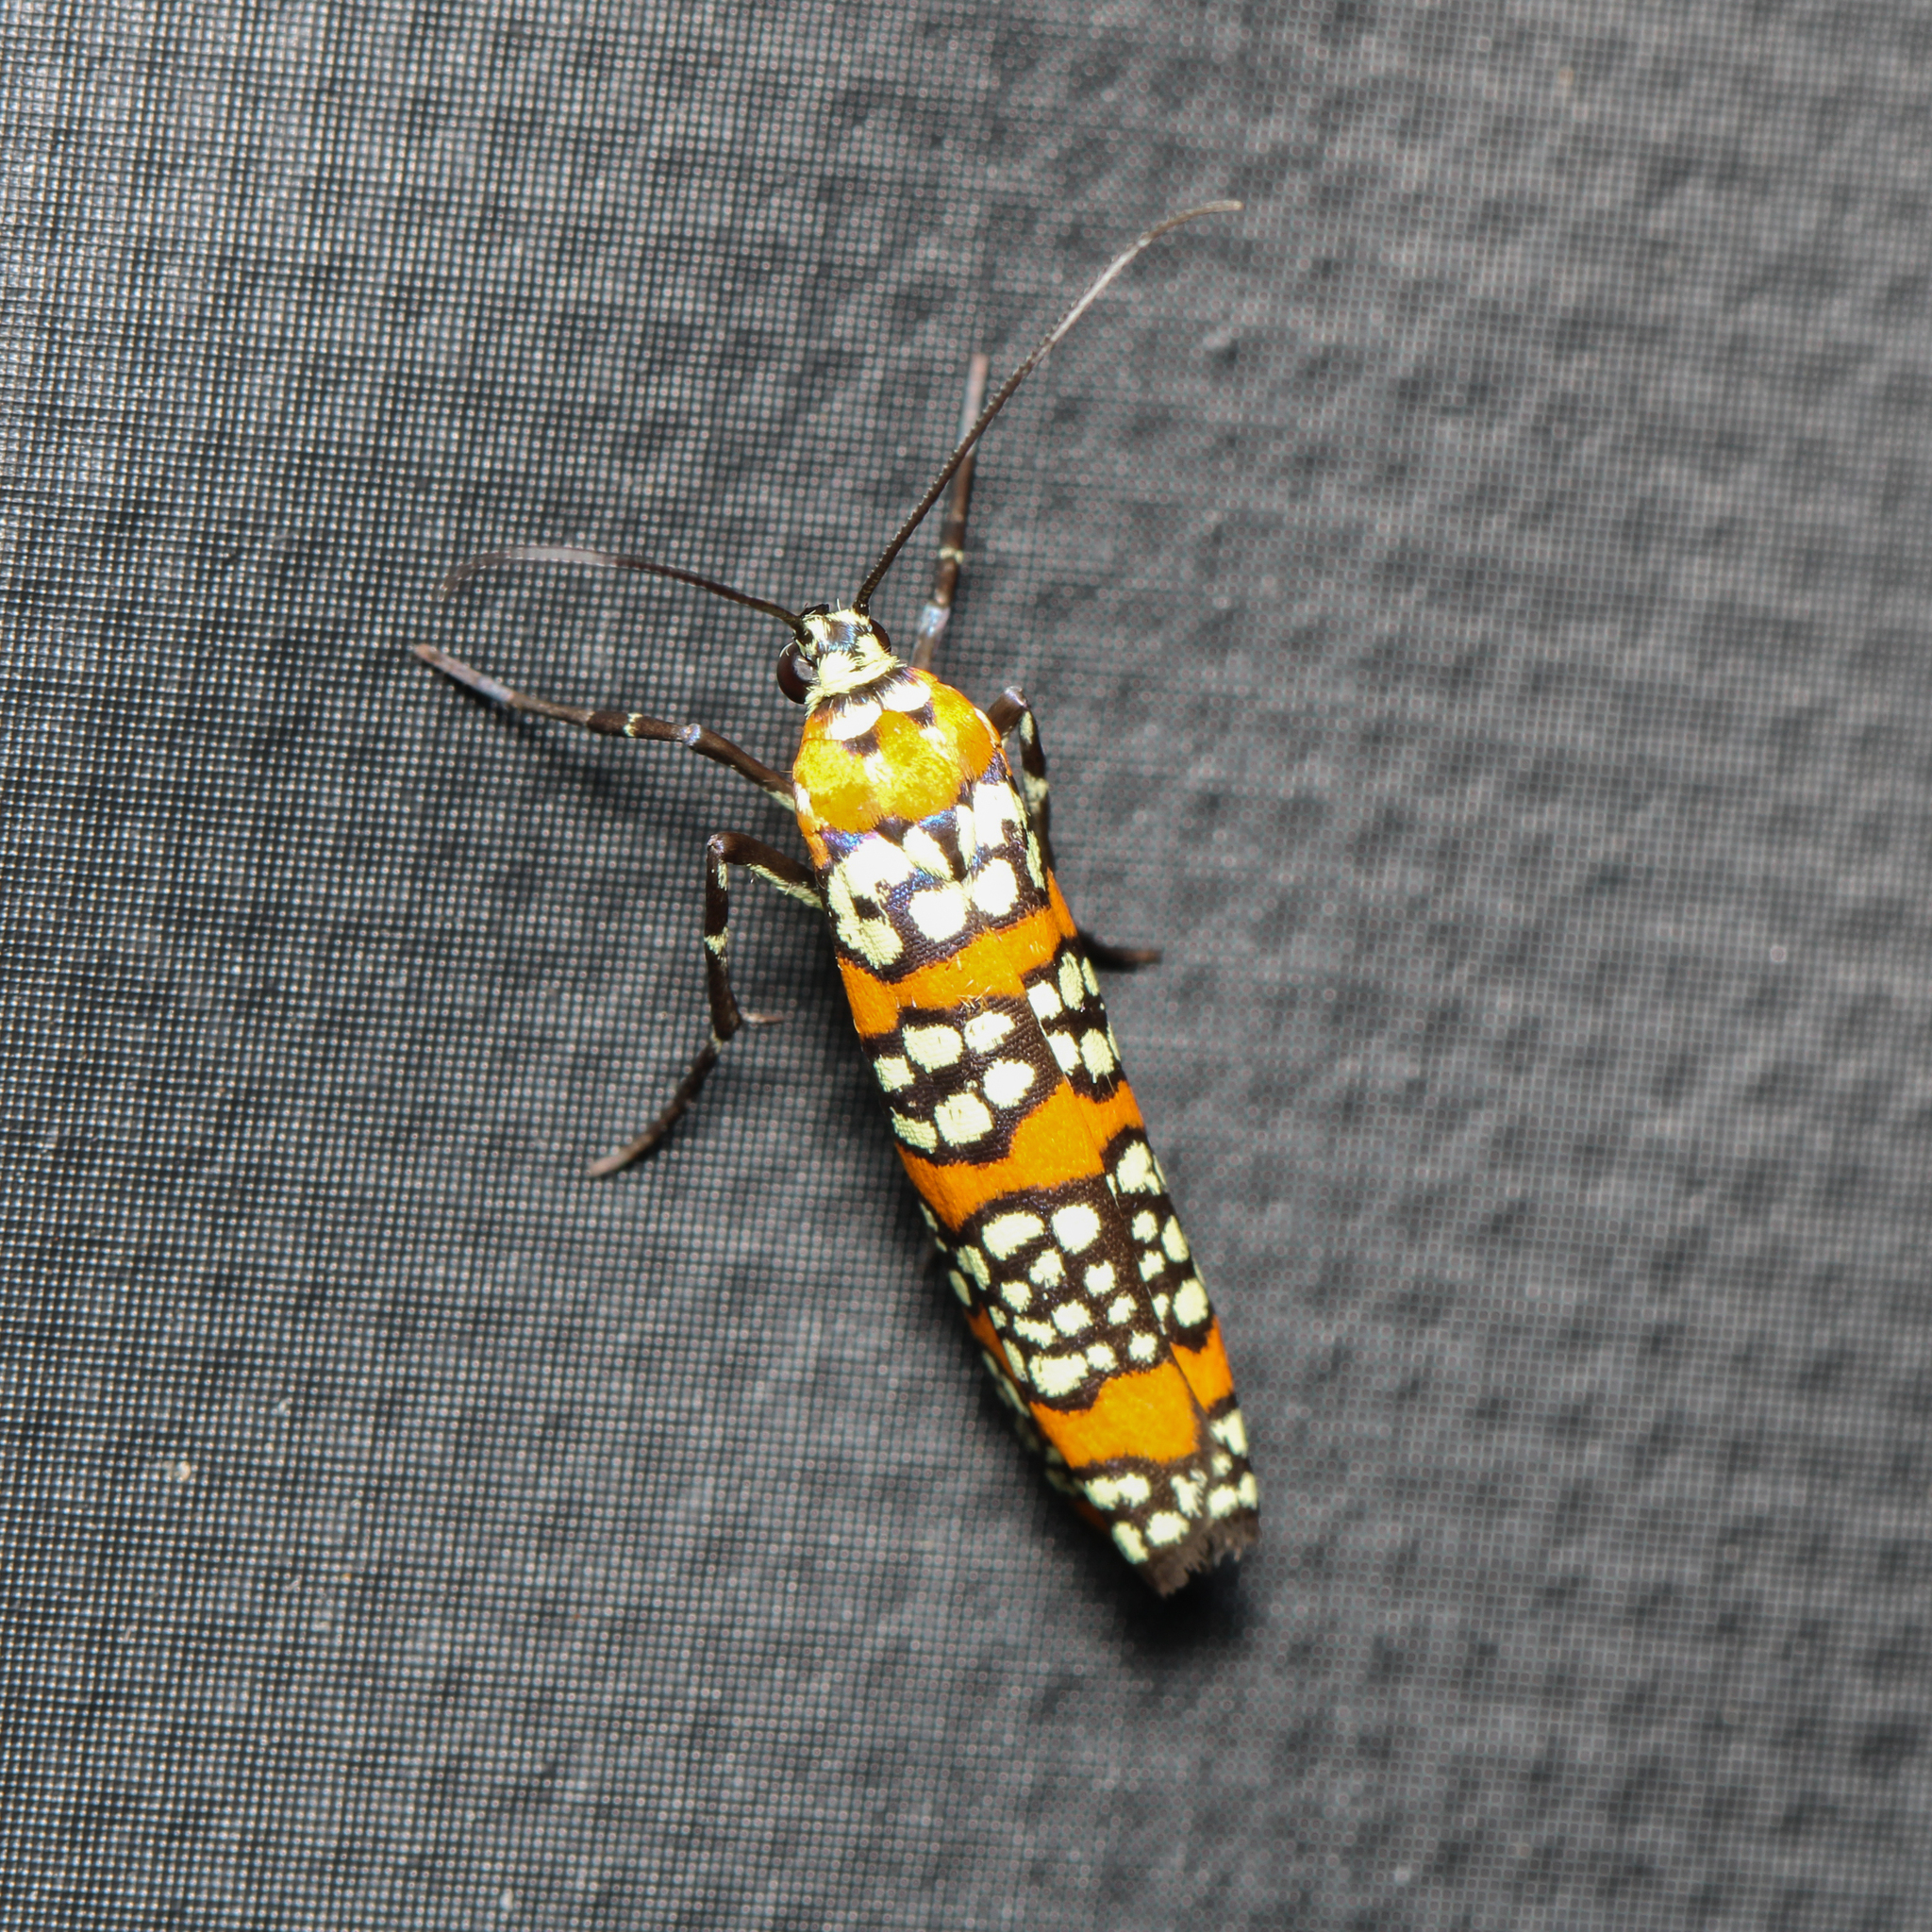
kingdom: Animalia
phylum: Arthropoda
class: Insecta
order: Lepidoptera
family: Attevidae
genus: Atteva
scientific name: Atteva punctella
